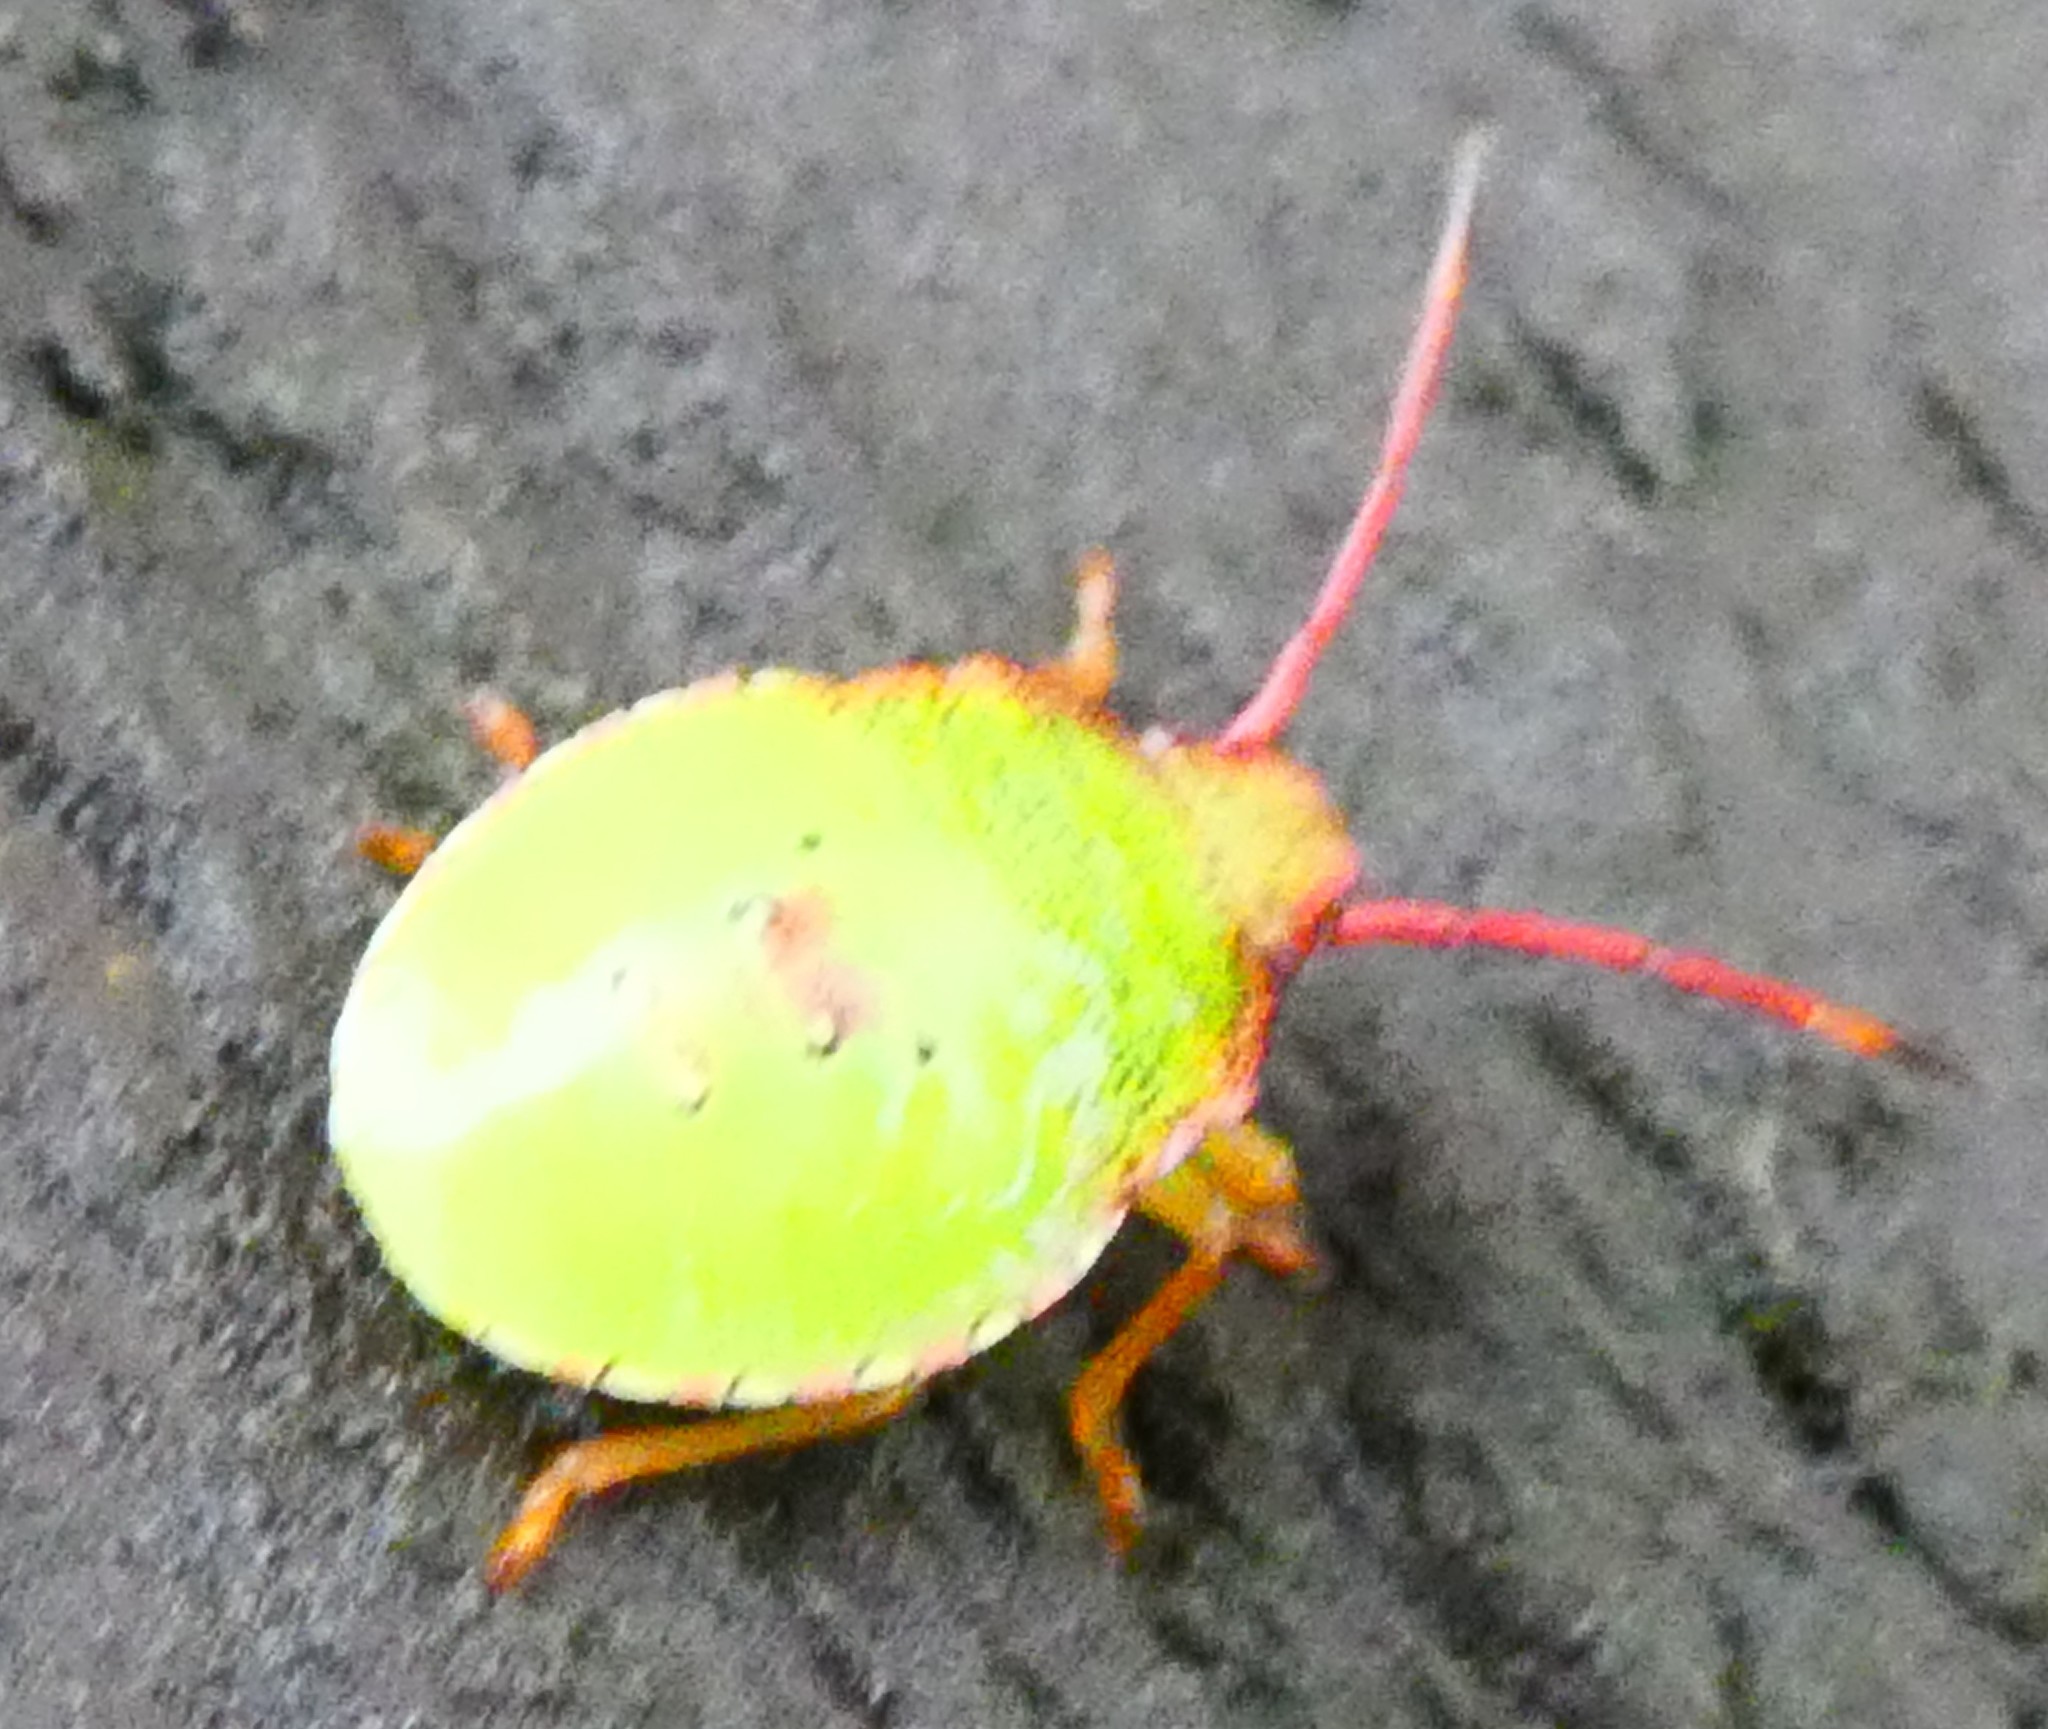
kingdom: Animalia
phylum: Arthropoda
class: Insecta
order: Hemiptera
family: Acanthosomatidae
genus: Acanthosoma
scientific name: Acanthosoma haemorrhoidale
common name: Hawthorn shieldbug
